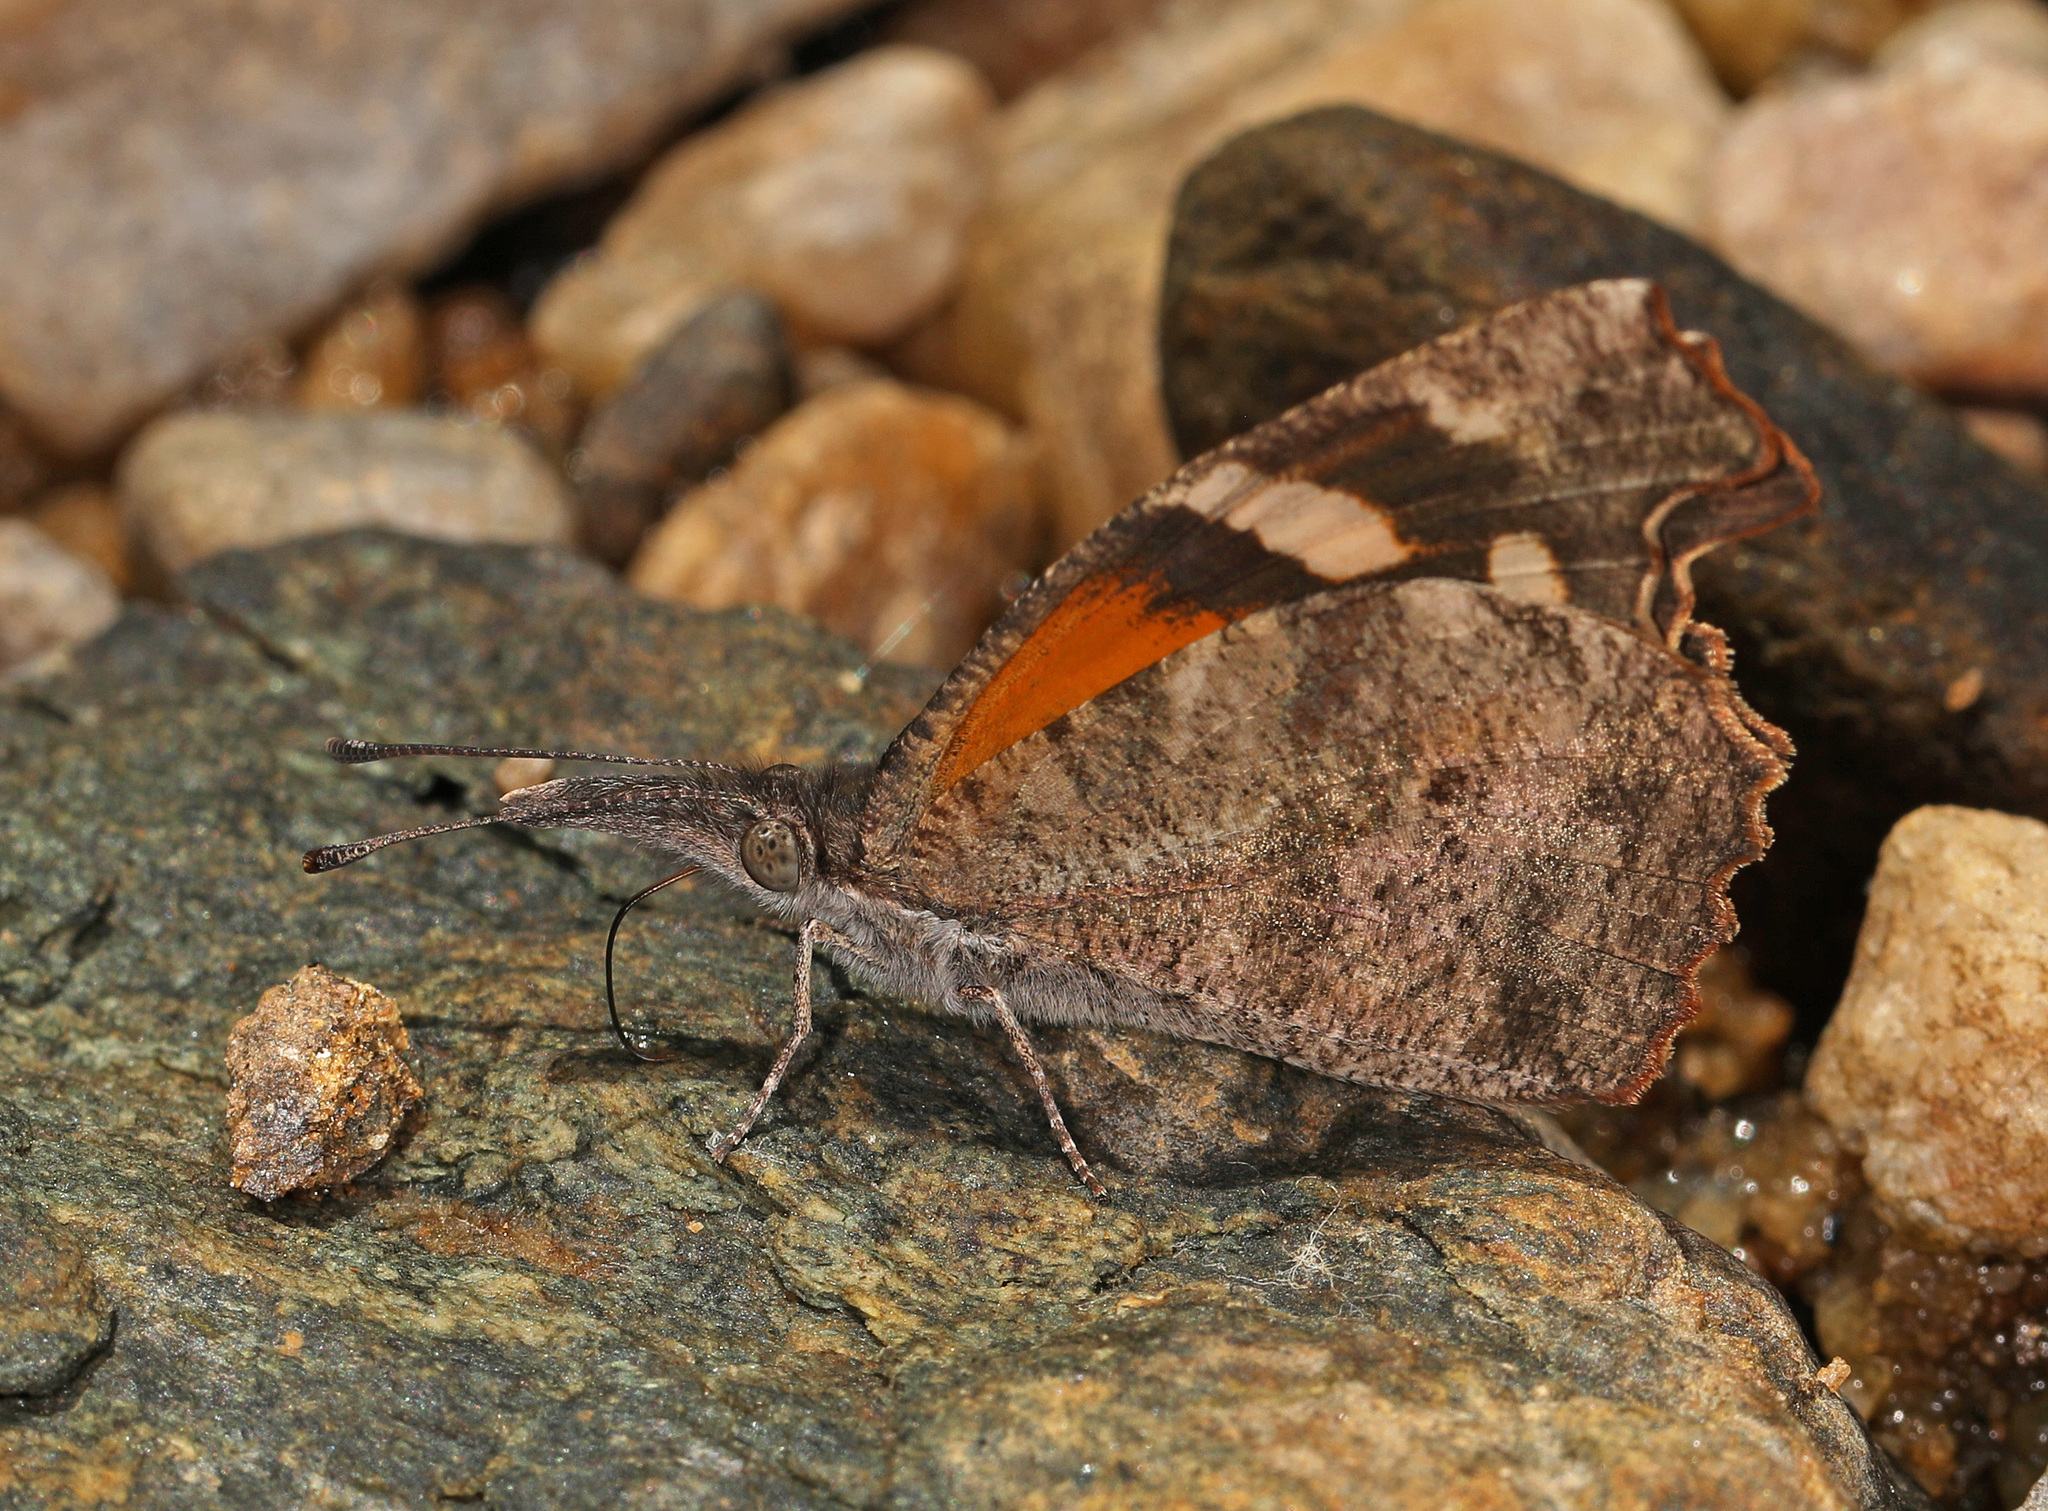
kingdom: Animalia
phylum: Arthropoda
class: Insecta
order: Lepidoptera
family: Nymphalidae
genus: Libytheana
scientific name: Libytheana carinenta
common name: American snout
